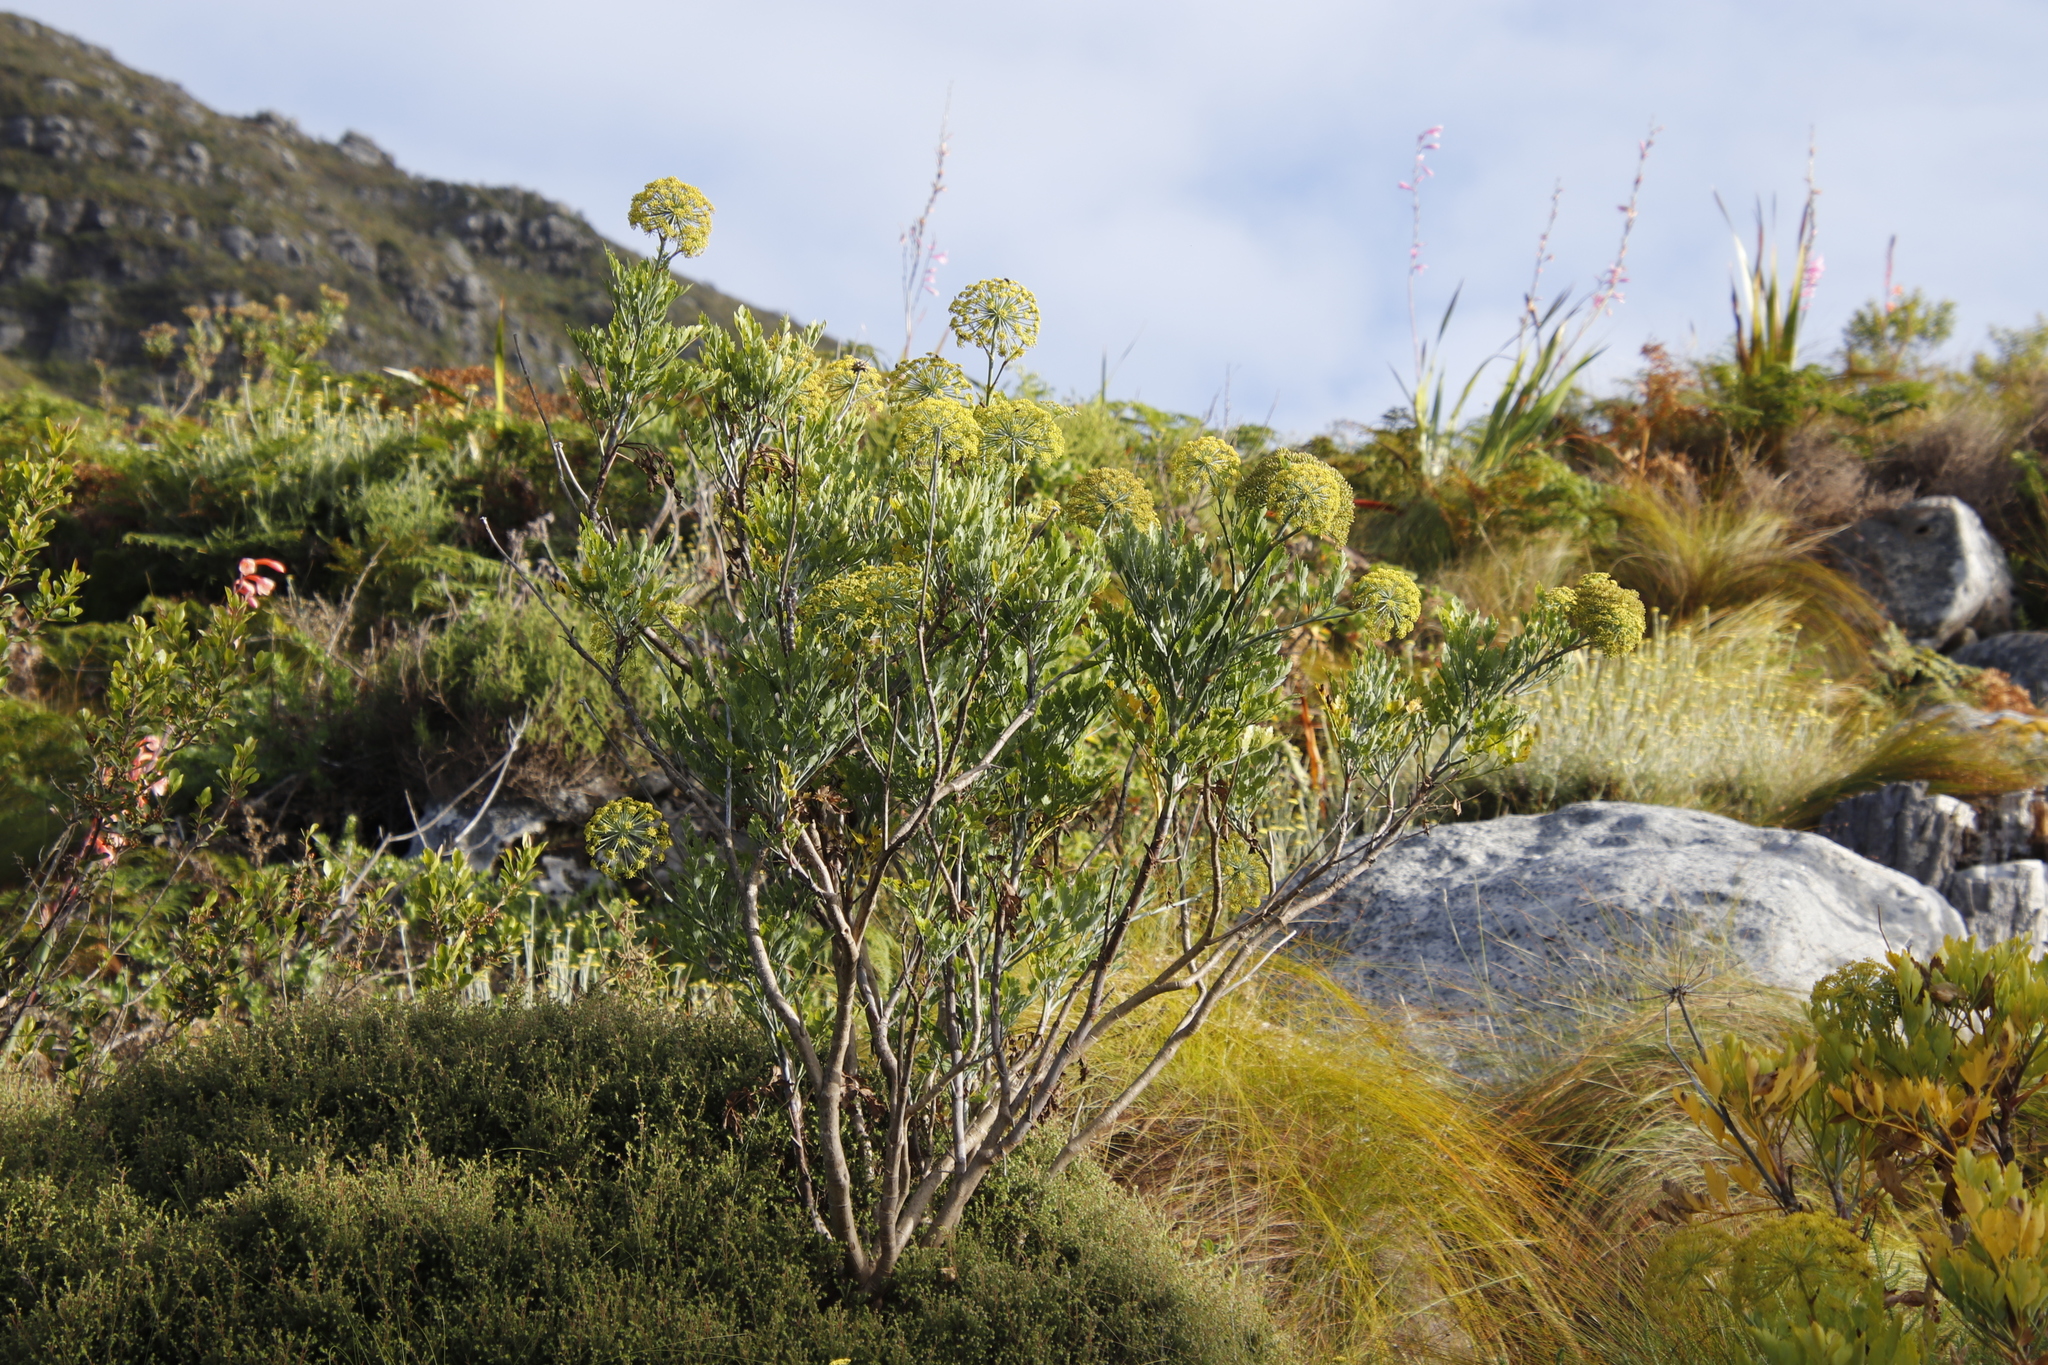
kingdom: Plantae
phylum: Tracheophyta
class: Magnoliopsida
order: Apiales
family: Apiaceae
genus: Notobubon
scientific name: Notobubon galbanum
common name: Blisterbush
